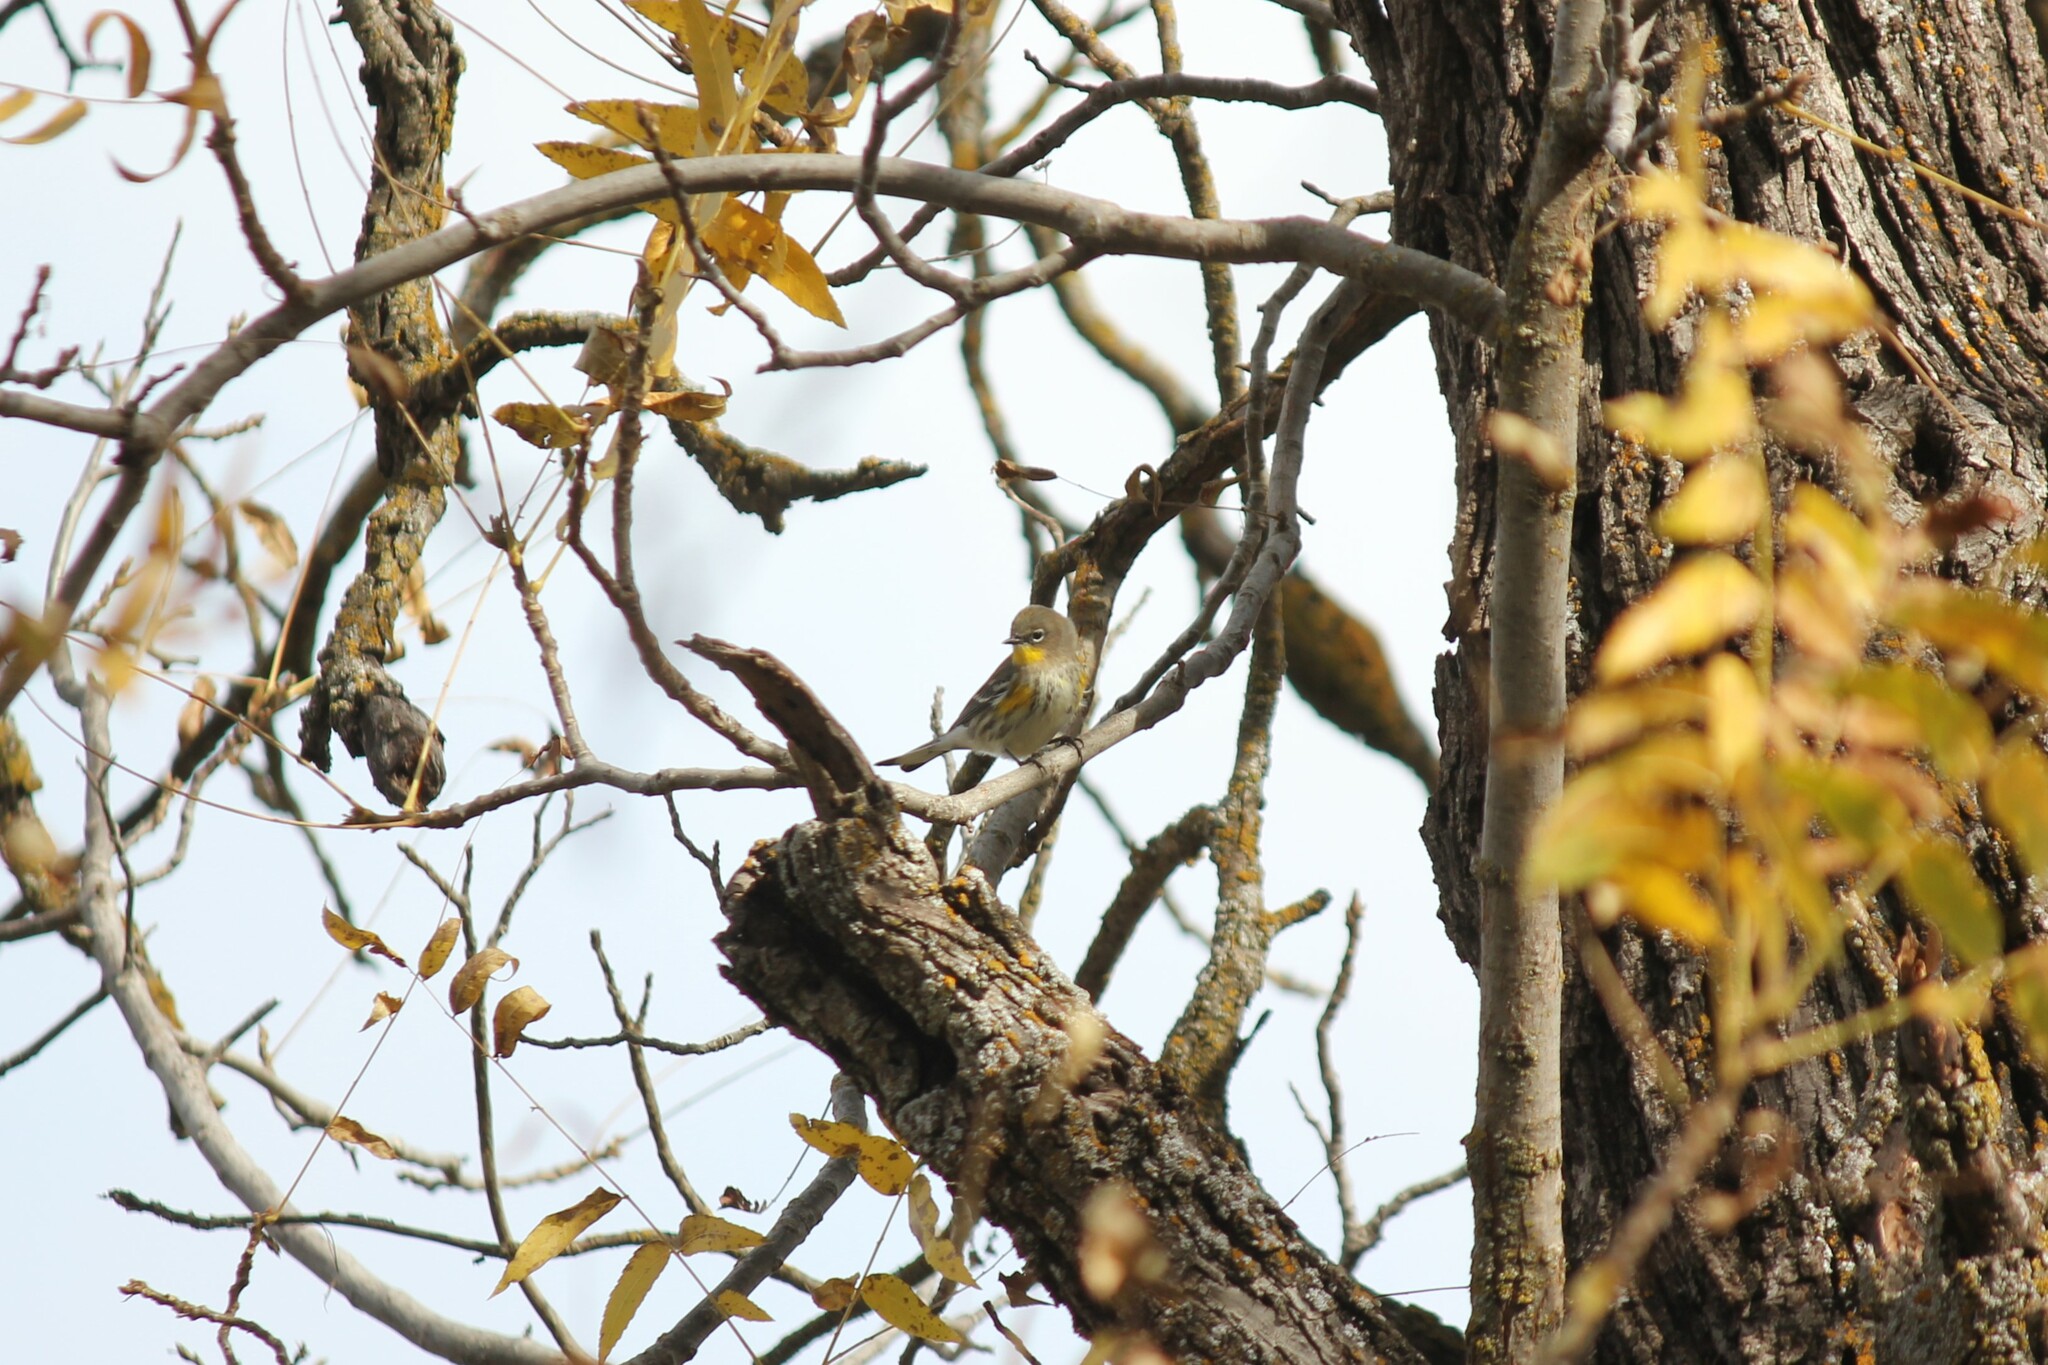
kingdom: Animalia
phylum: Chordata
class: Aves
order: Passeriformes
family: Parulidae
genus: Setophaga
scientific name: Setophaga coronata
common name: Myrtle warbler
